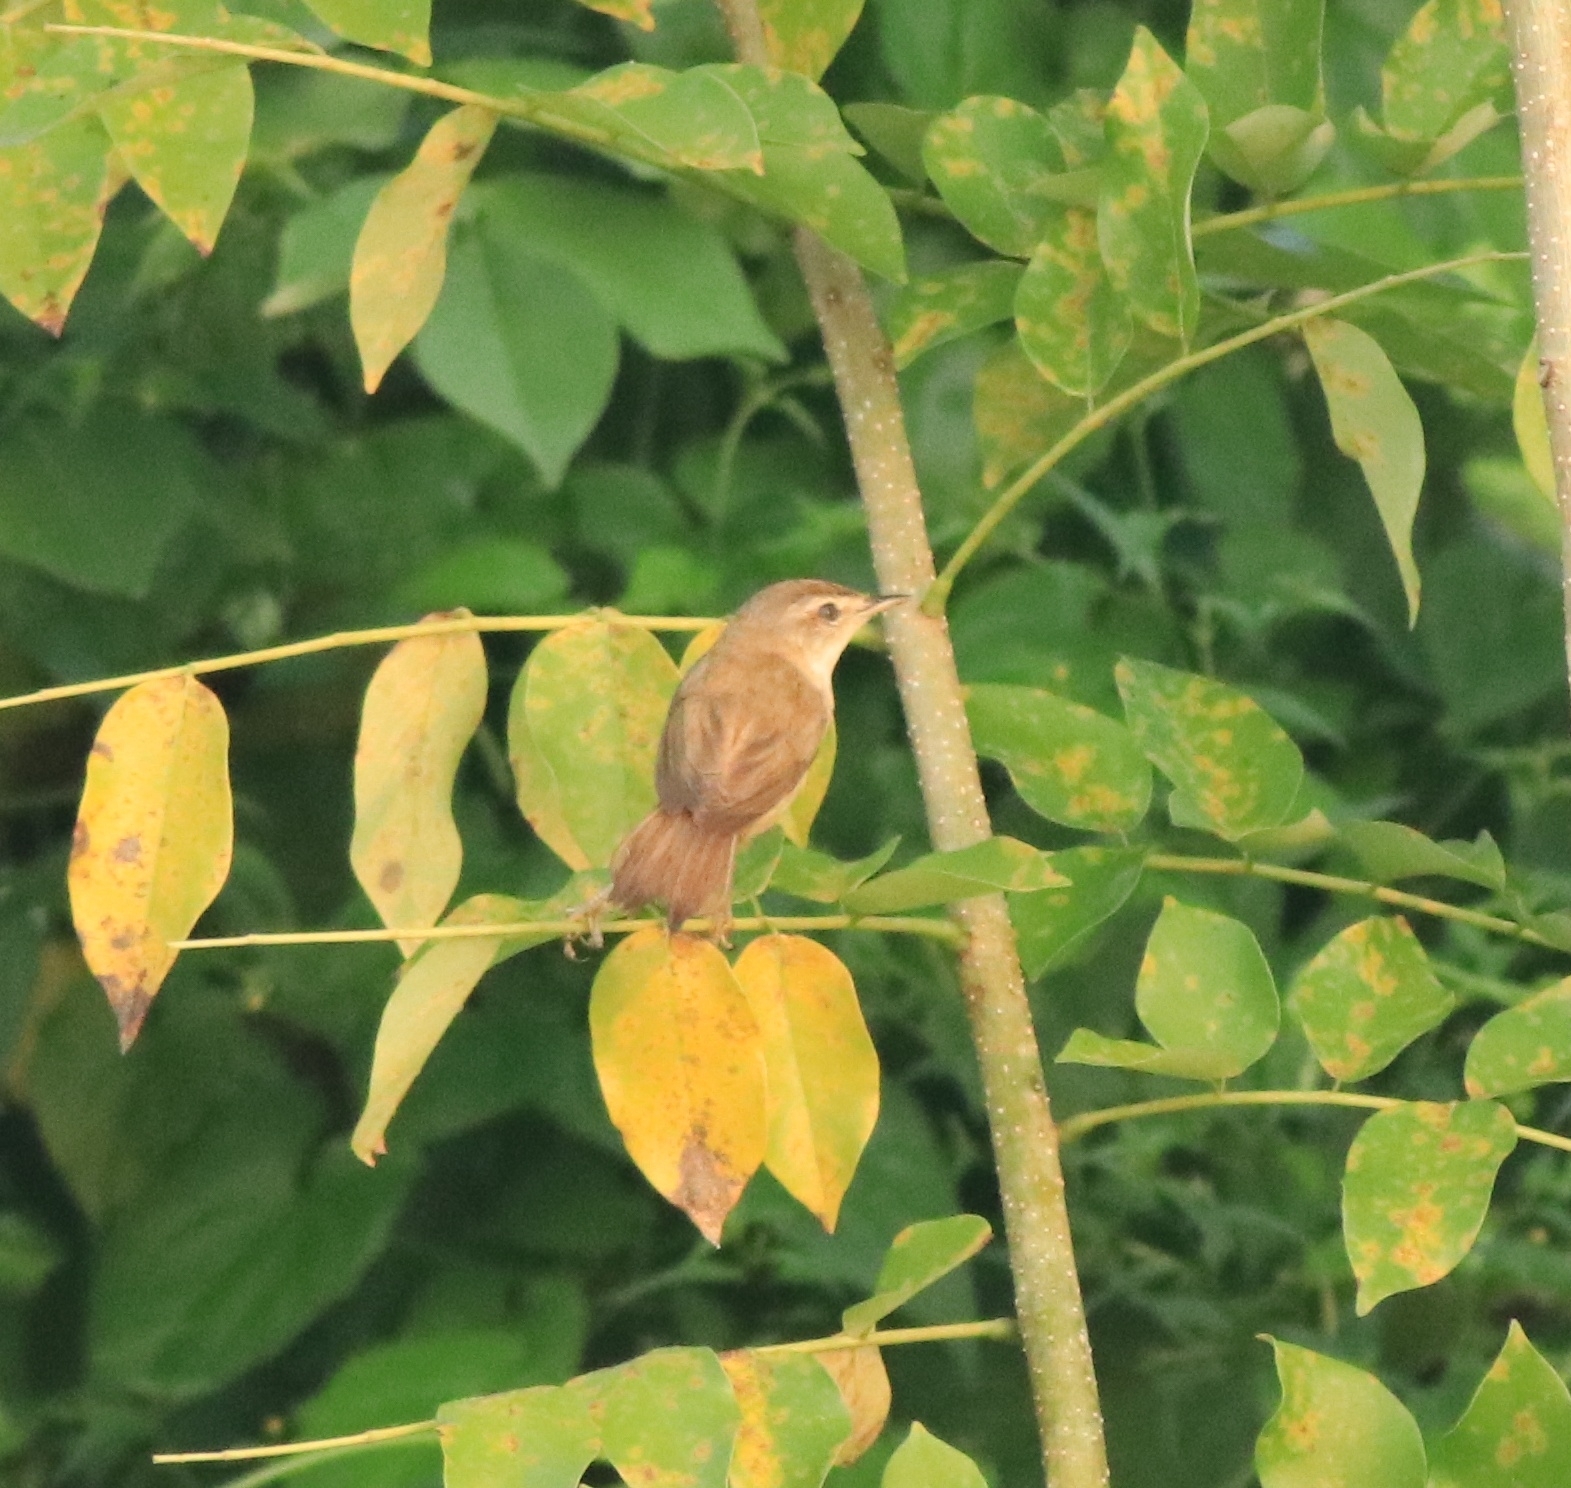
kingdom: Animalia
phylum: Chordata
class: Aves
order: Passeriformes
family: Acrocephalidae
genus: Acrocephalus
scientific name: Acrocephalus agricola
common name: Paddyfield warbler
